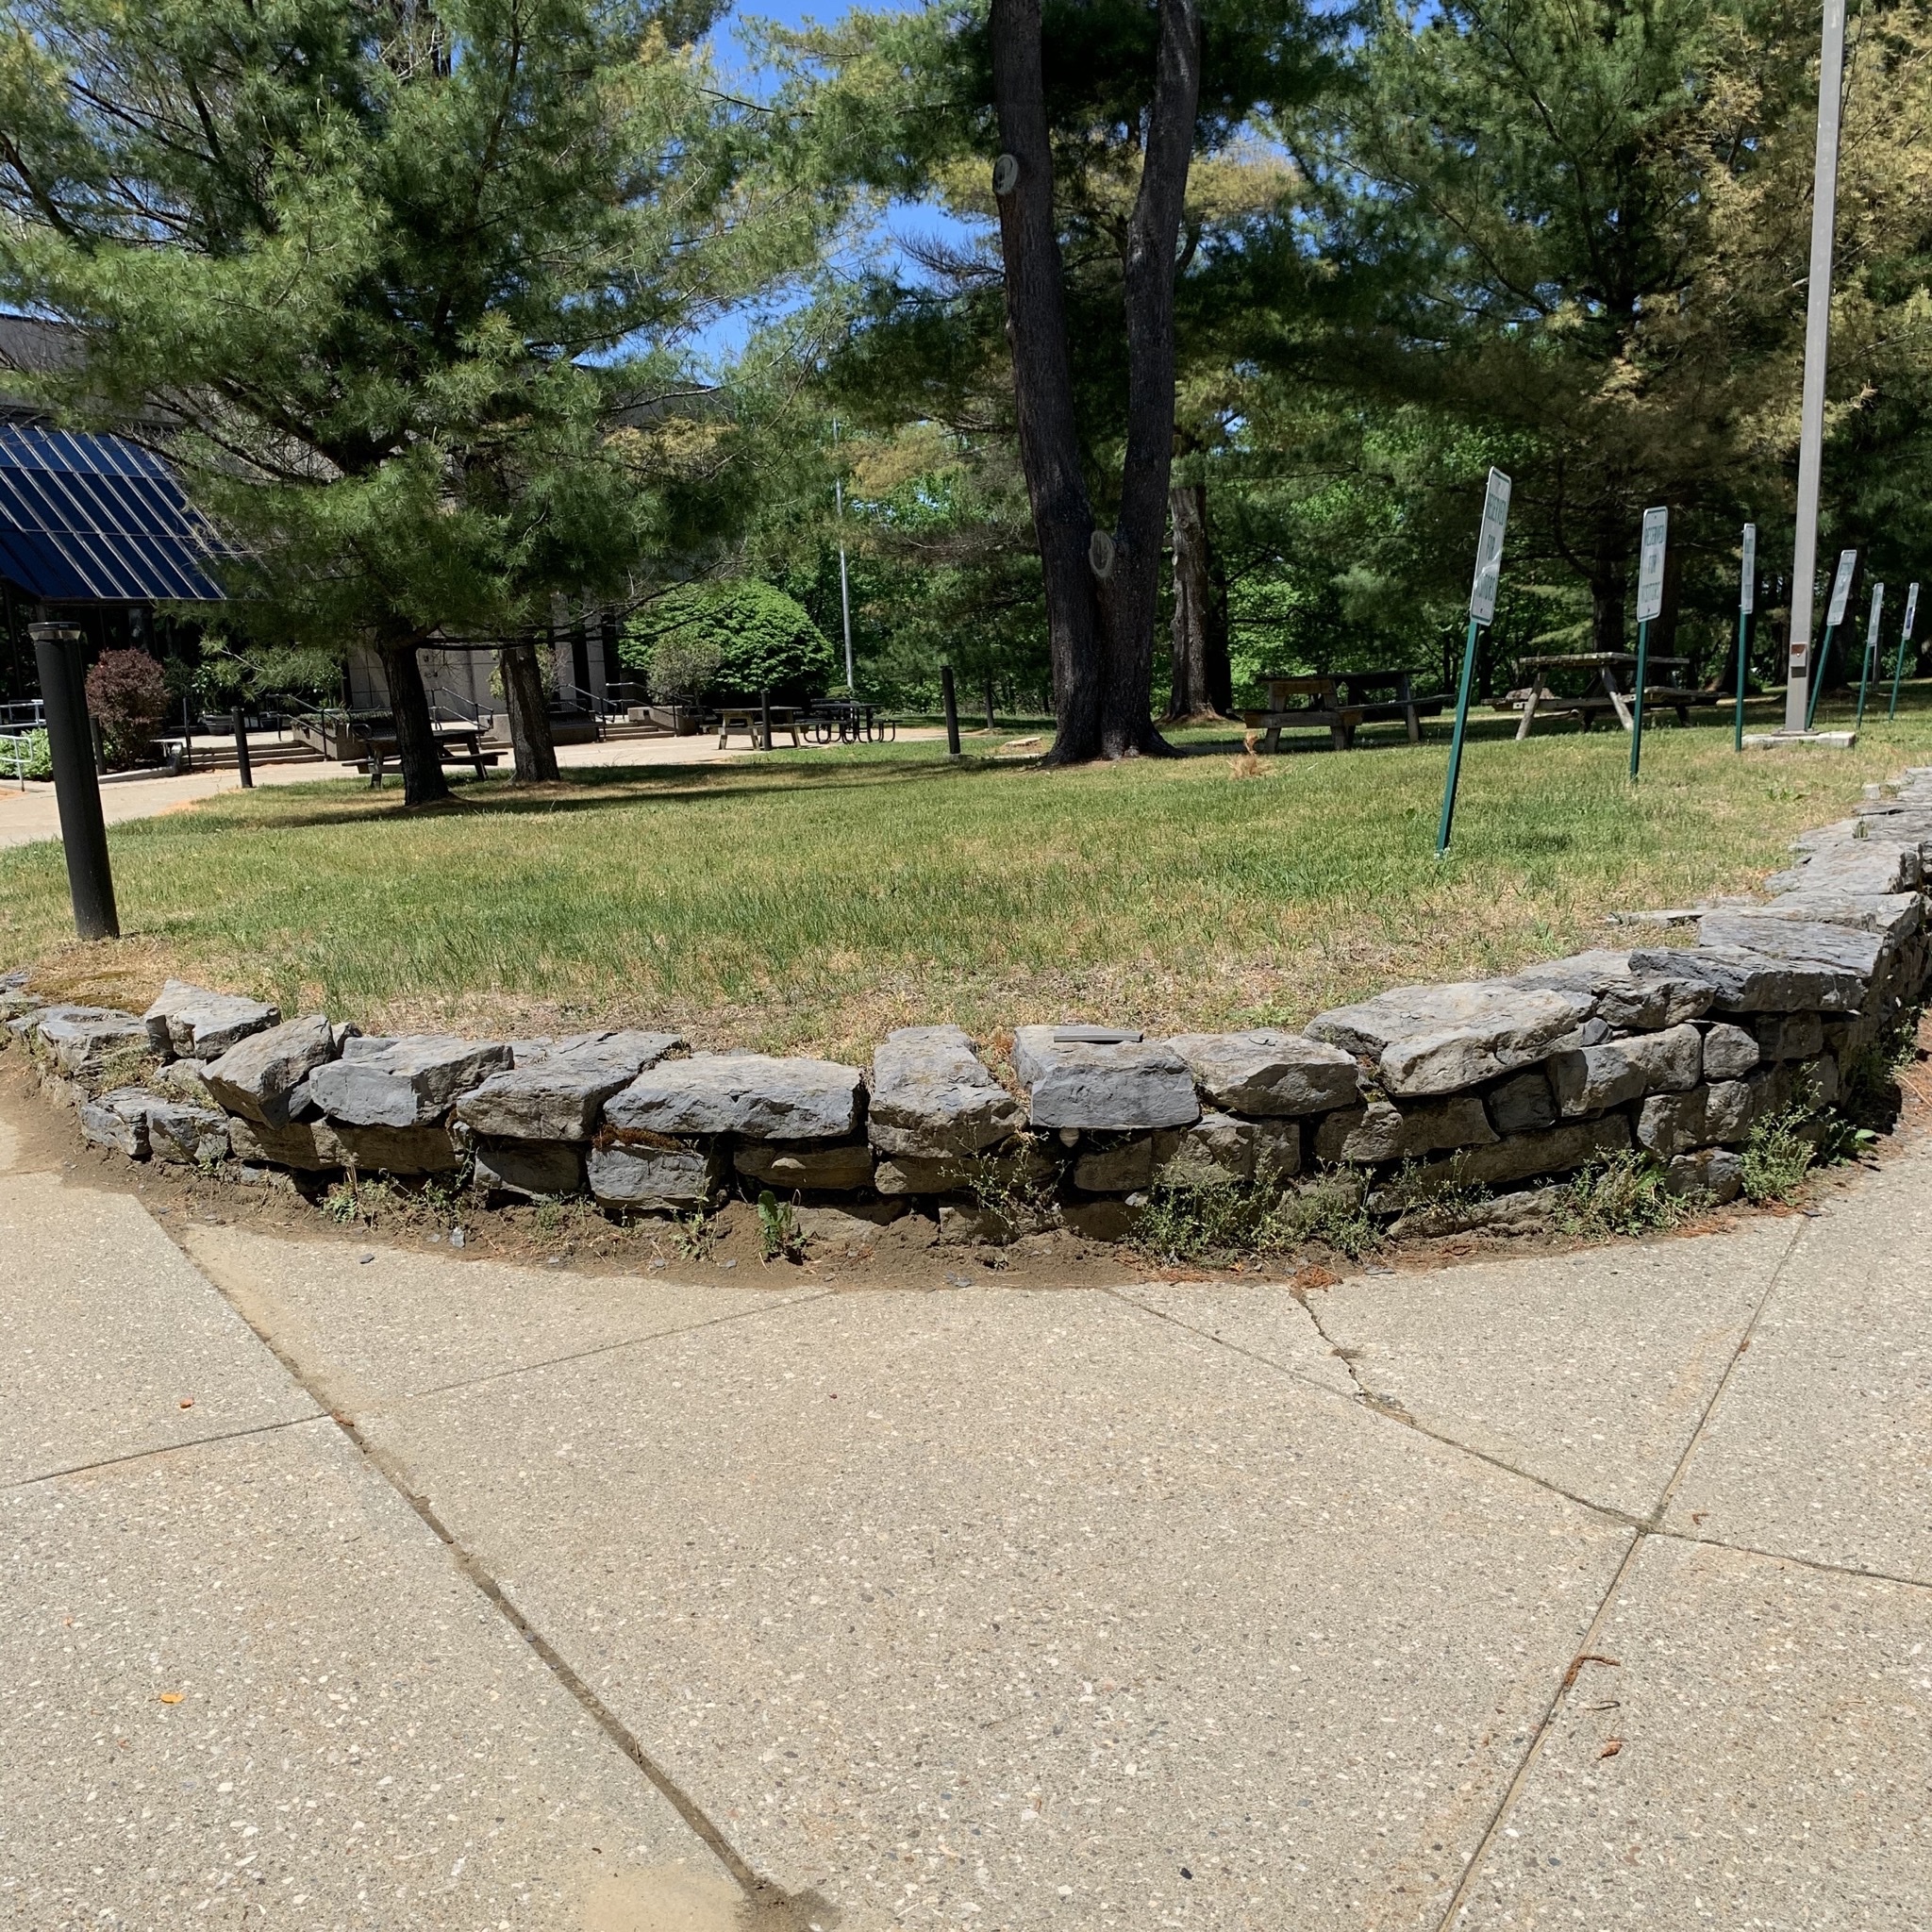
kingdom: Animalia
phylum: Arthropoda
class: Insecta
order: Hymenoptera
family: Vespidae
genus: Dolichovespula
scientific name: Dolichovespula
